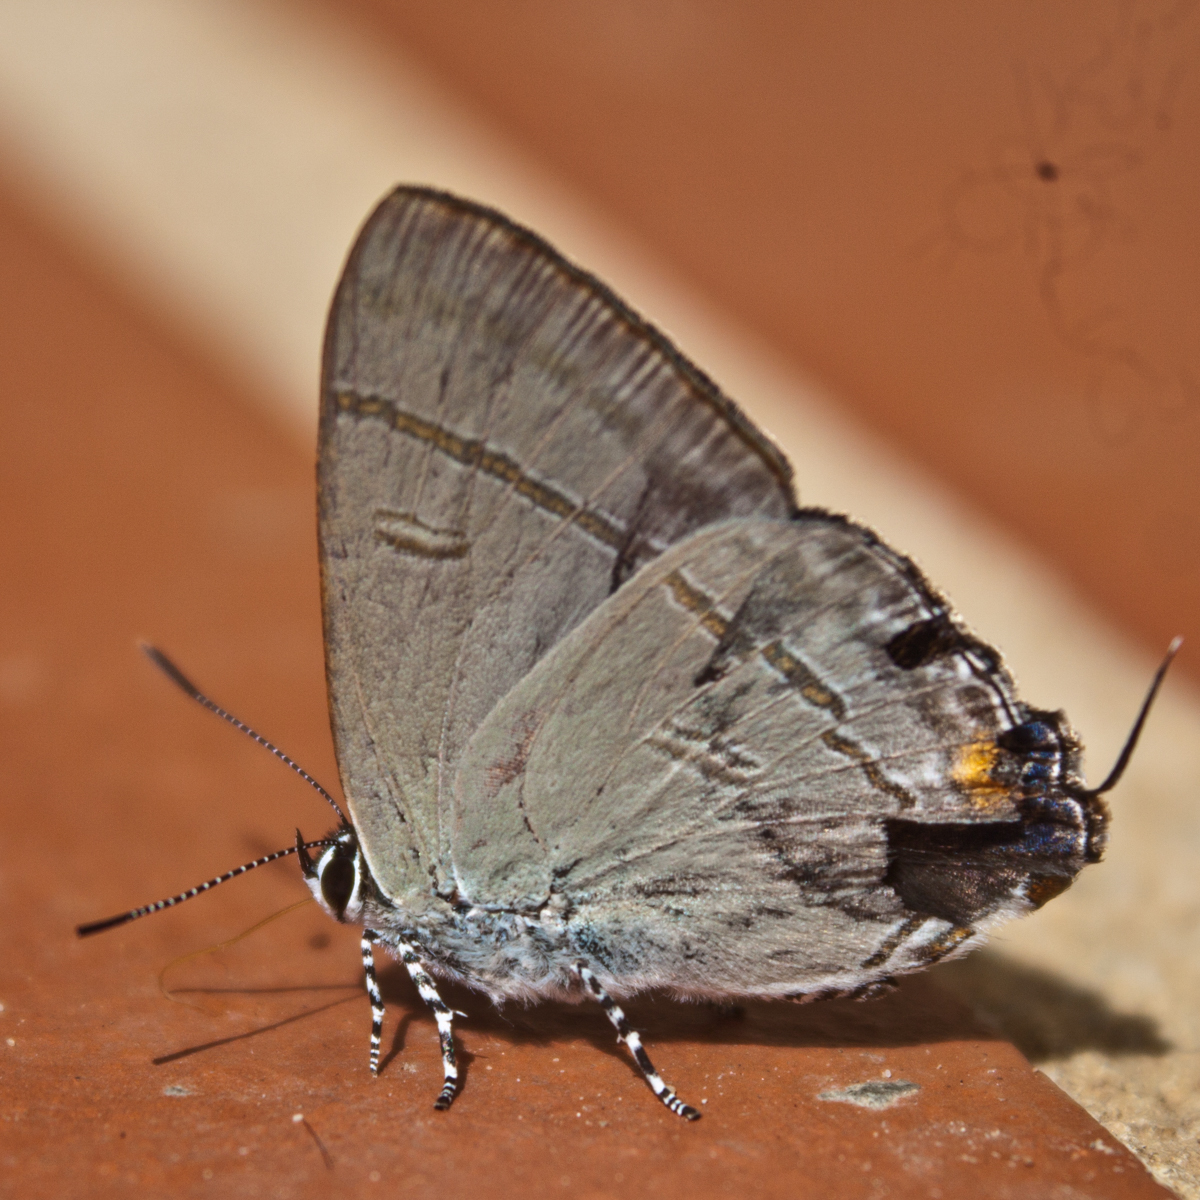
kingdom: Animalia
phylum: Arthropoda
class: Insecta
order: Lepidoptera
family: Lycaenidae
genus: Hypolycaena
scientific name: Hypolycaena erylus
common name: Common tit
